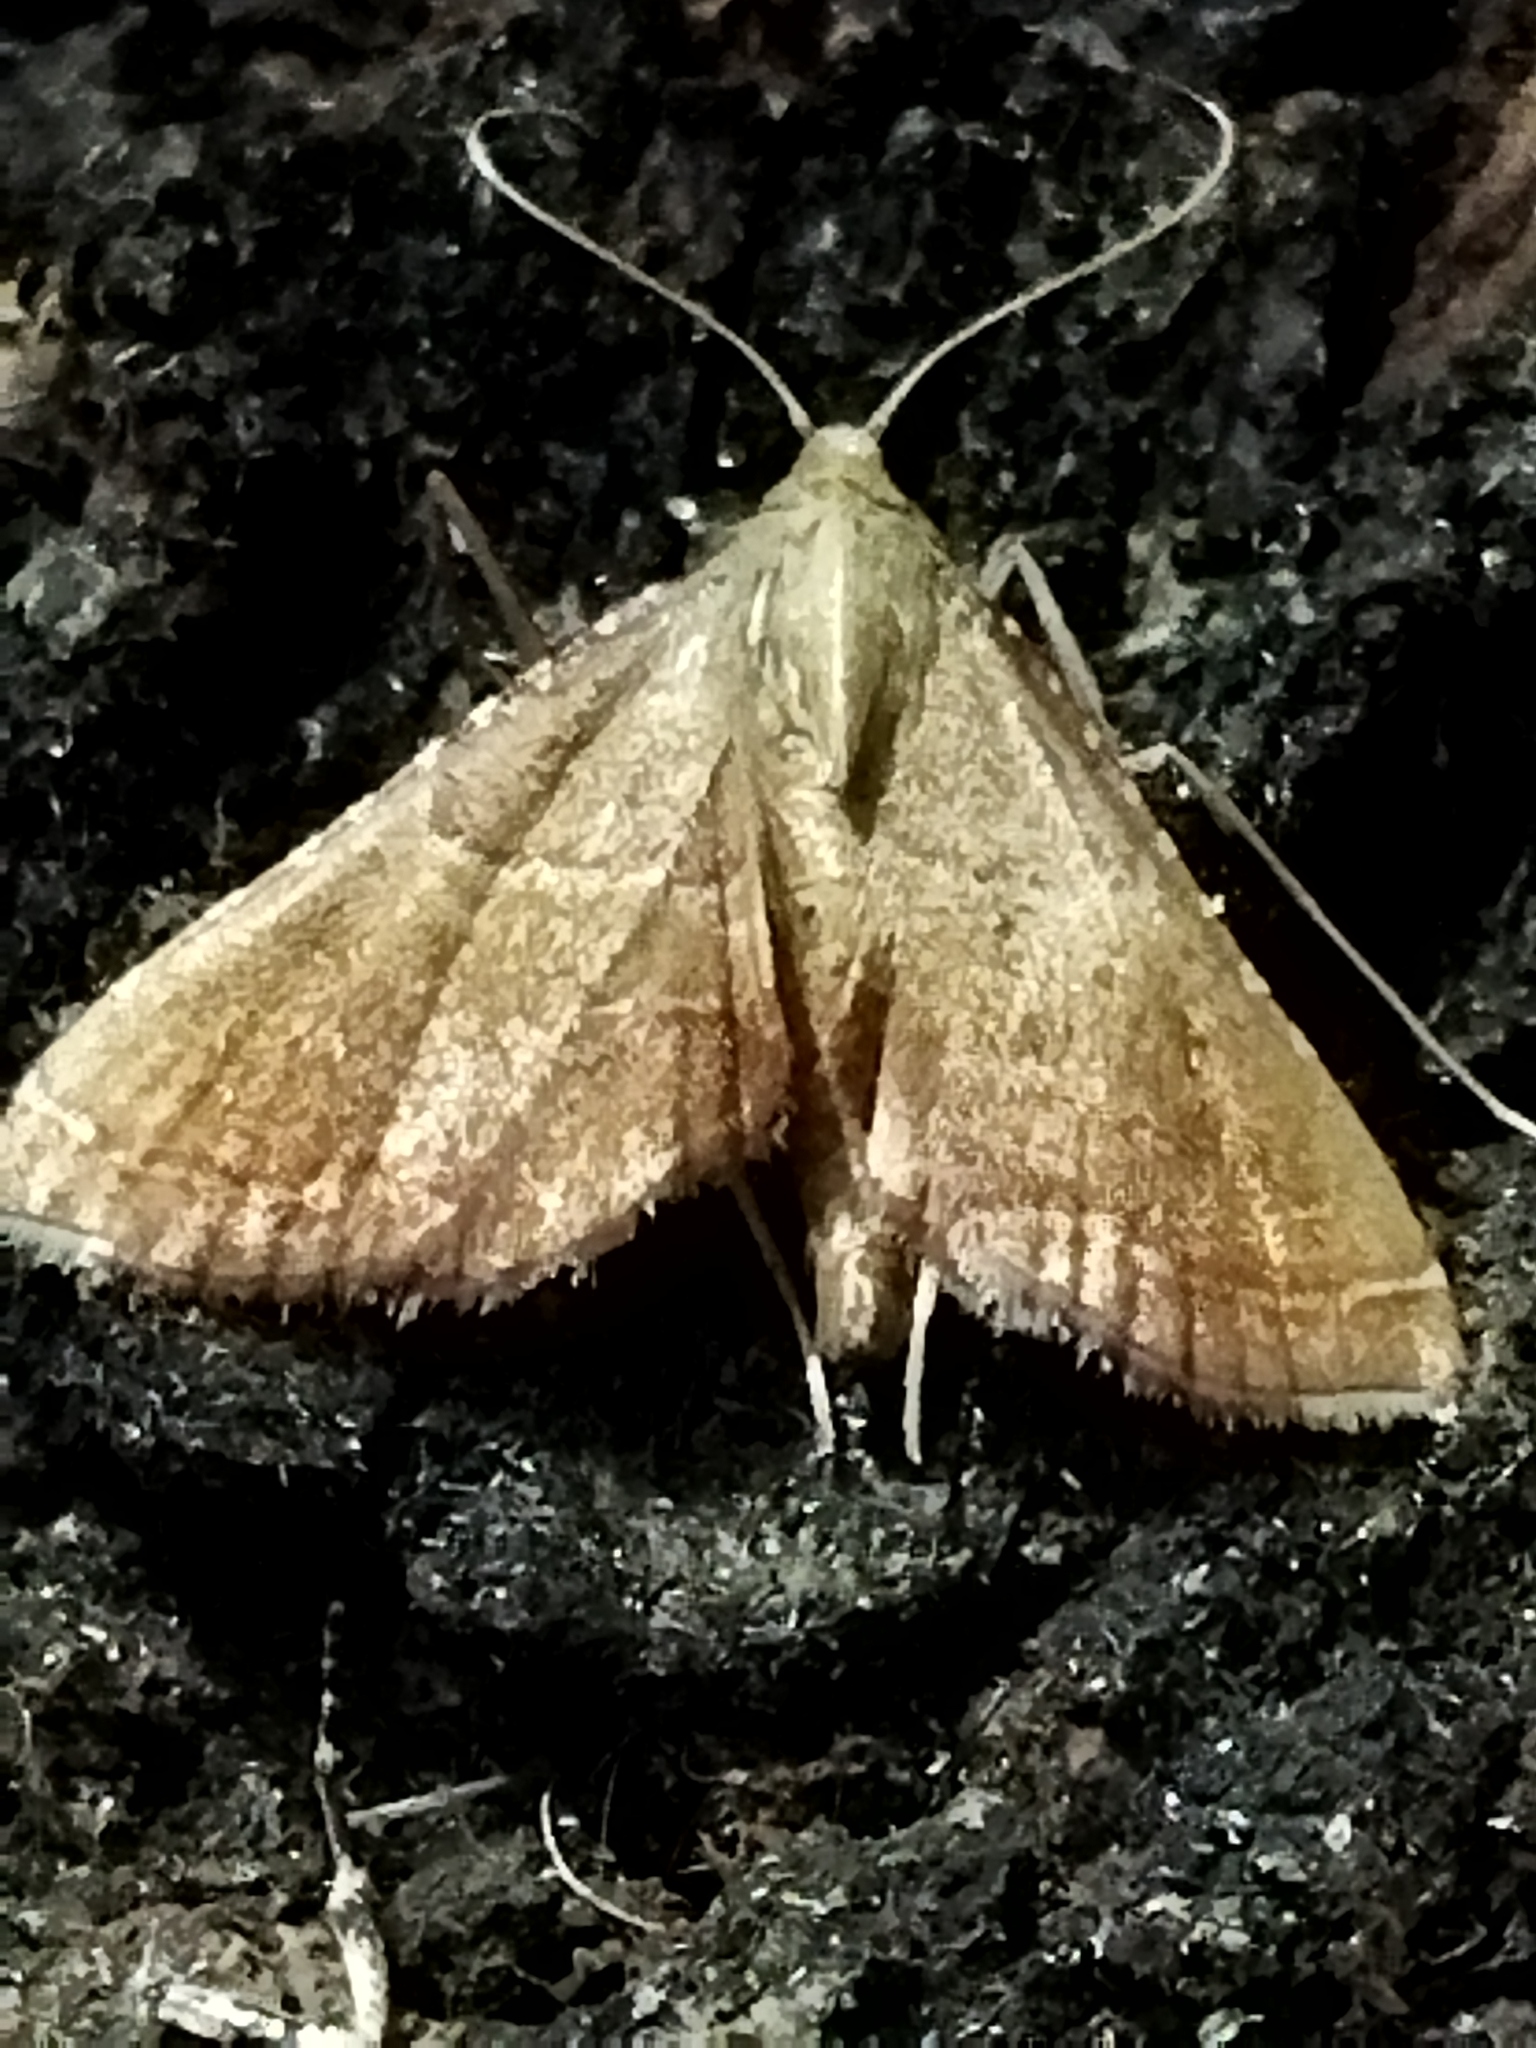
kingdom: Animalia
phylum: Arthropoda
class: Insecta
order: Lepidoptera
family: Pyralidae
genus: Endotricha
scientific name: Endotricha flammealis
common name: Rosy tabby
